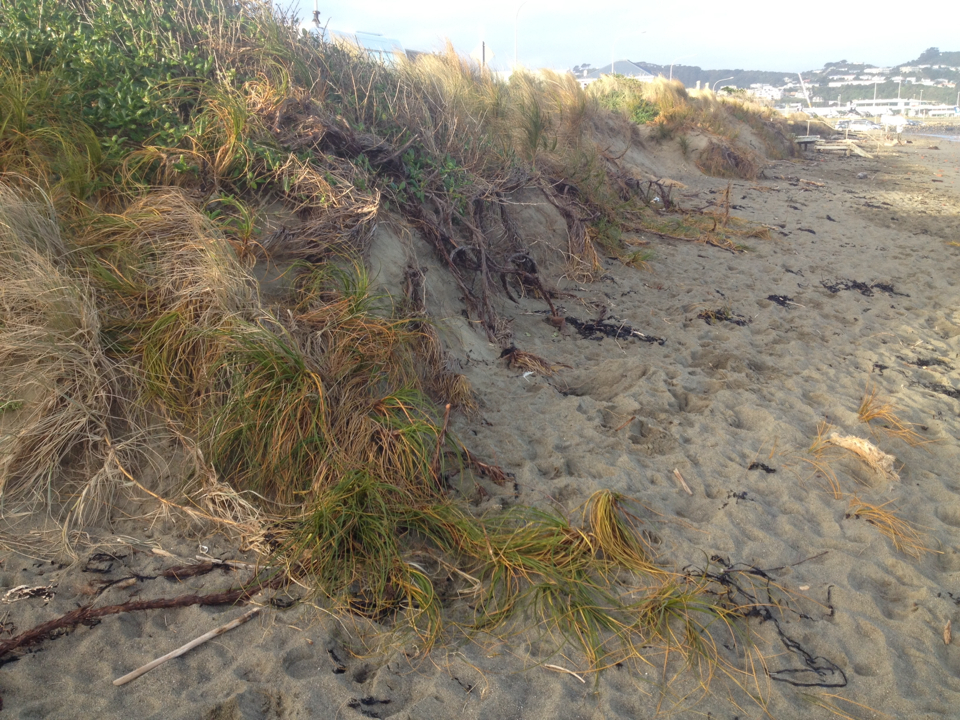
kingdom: Plantae
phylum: Tracheophyta
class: Liliopsida
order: Poales
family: Poaceae
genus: Spinifex
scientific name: Spinifex sericeus
